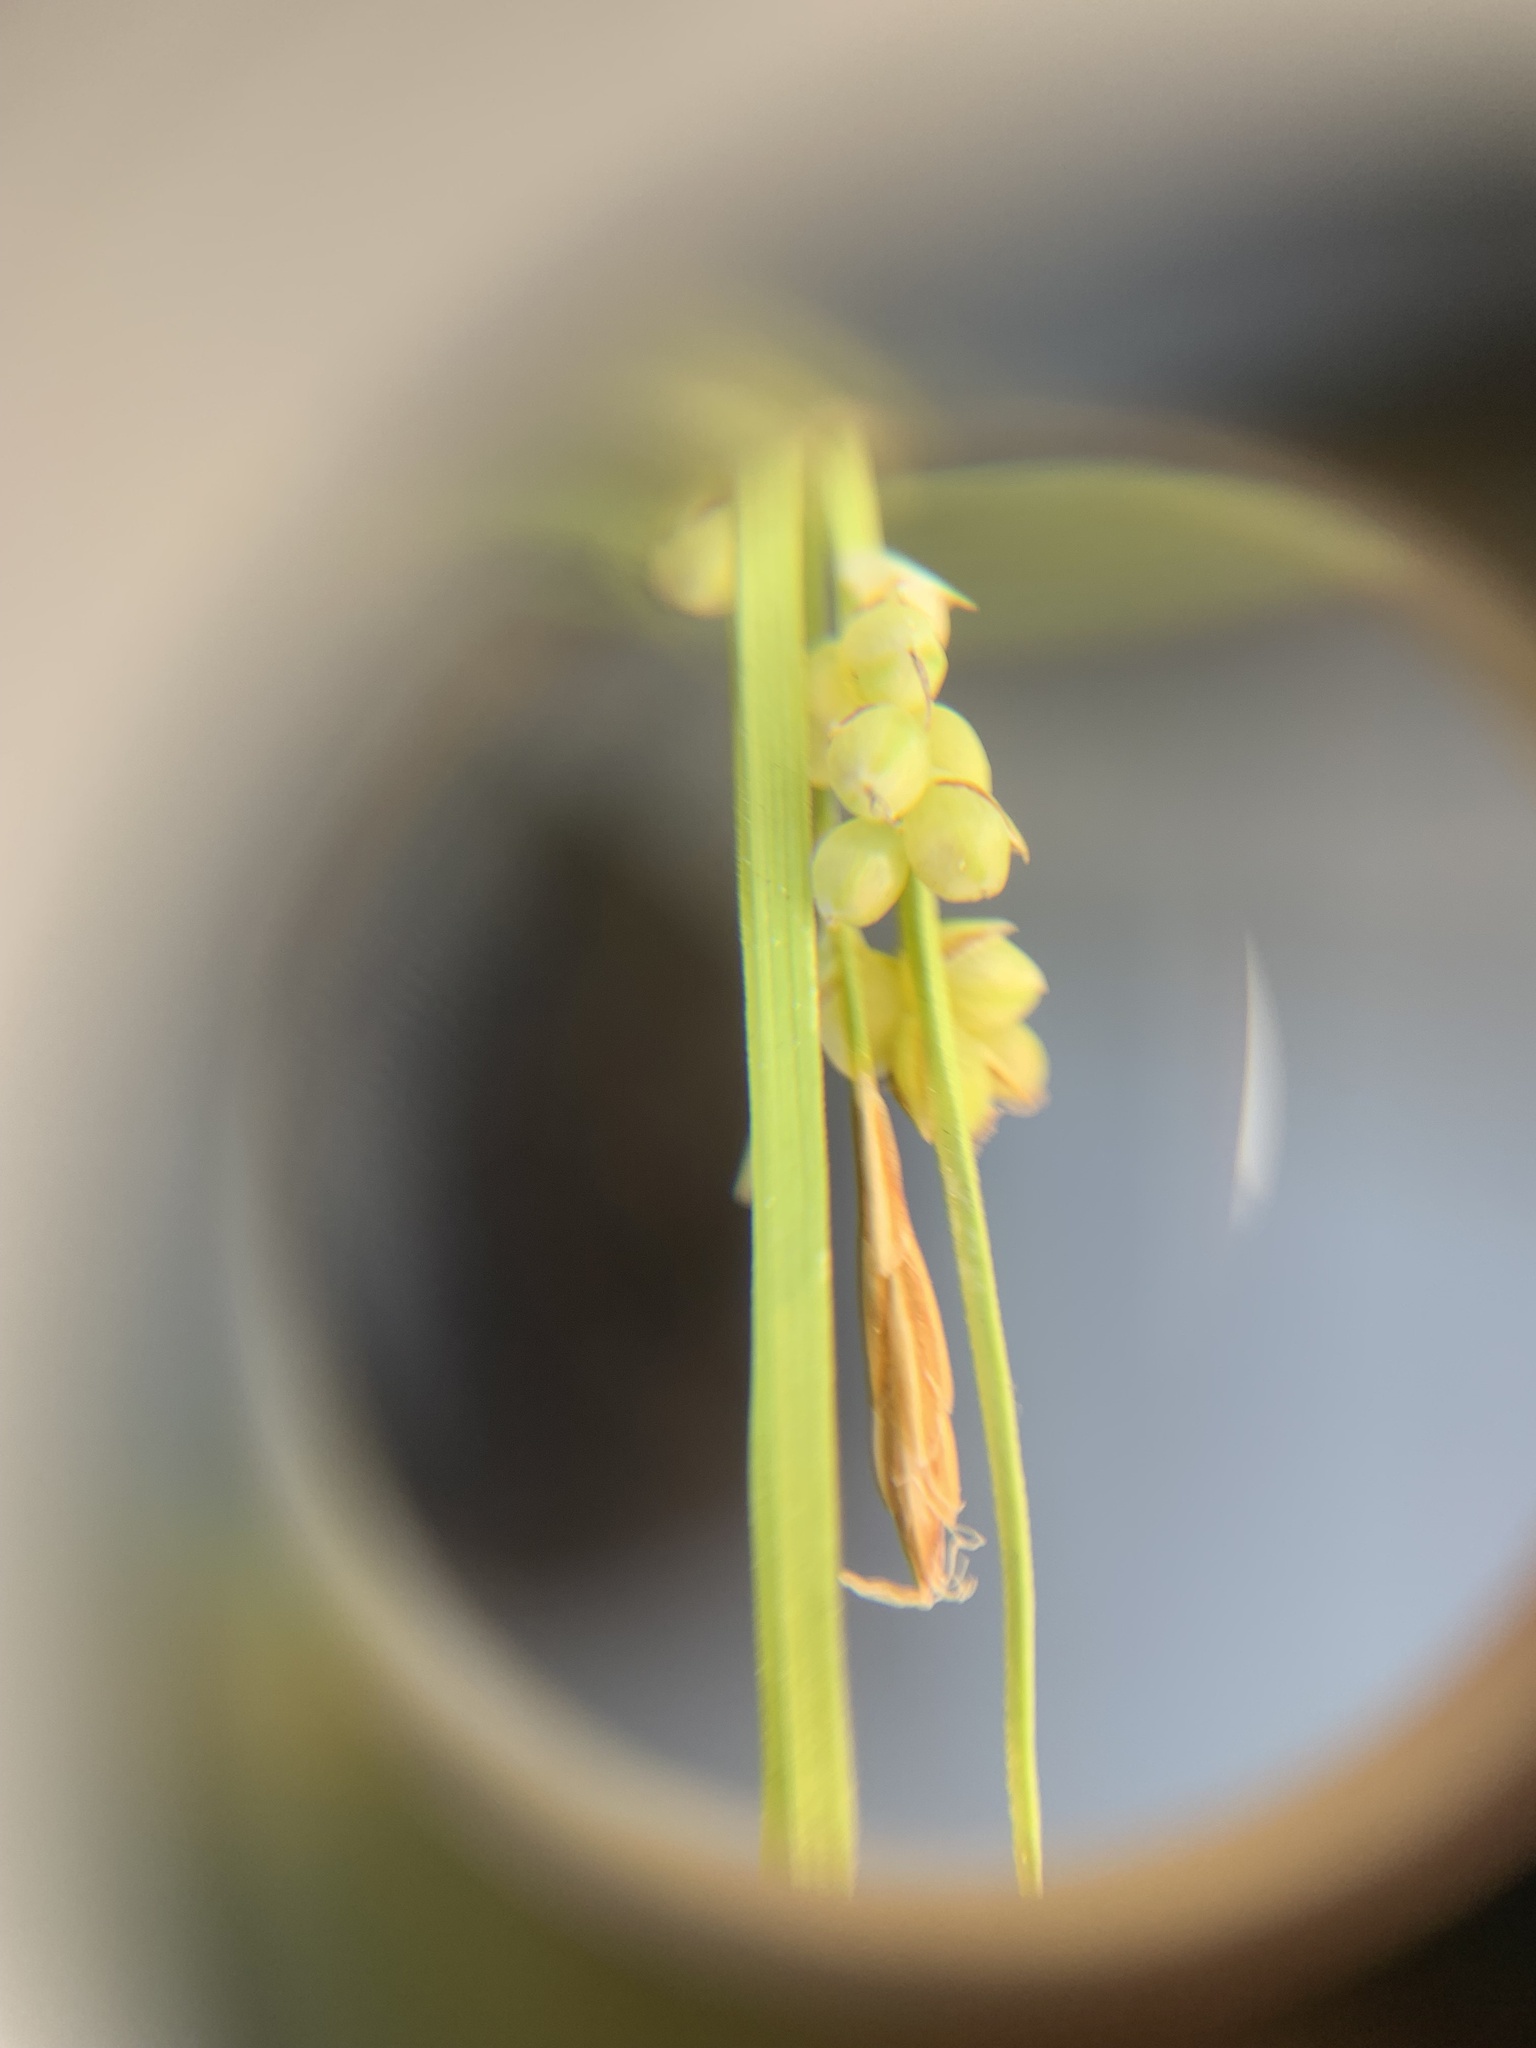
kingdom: Plantae
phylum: Tracheophyta
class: Liliopsida
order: Poales
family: Cyperaceae
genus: Carex
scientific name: Carex aurea
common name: Golden sedge
